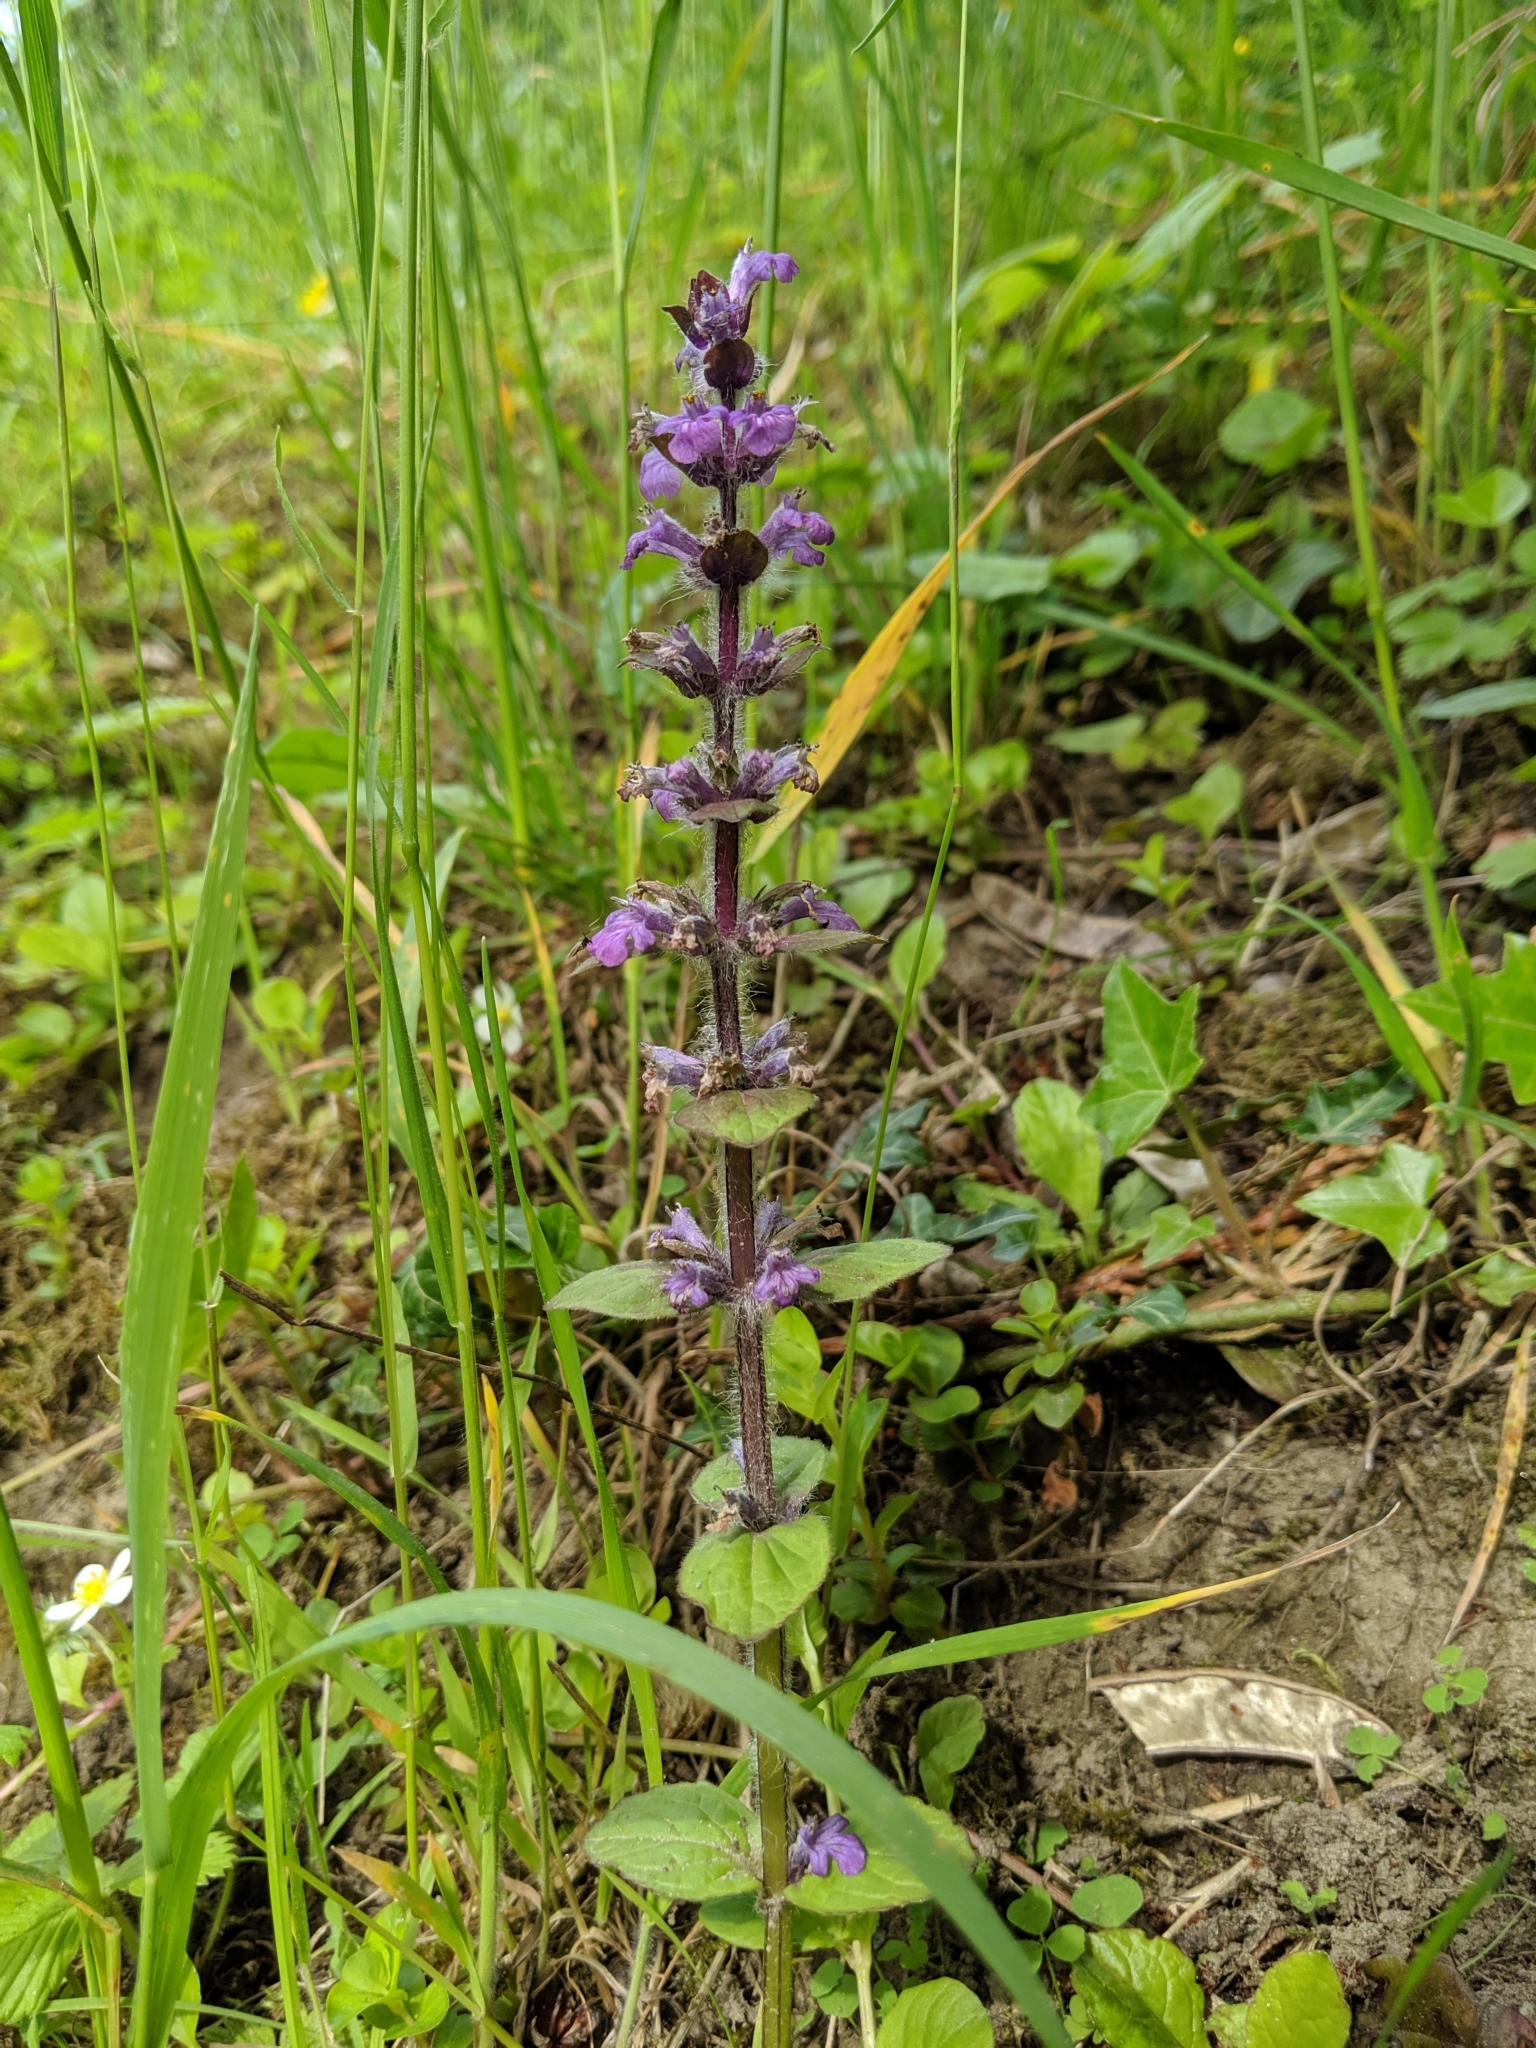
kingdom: Plantae
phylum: Tracheophyta
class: Magnoliopsida
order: Lamiales
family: Lamiaceae
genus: Ajuga
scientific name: Ajuga reptans
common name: Bugle
